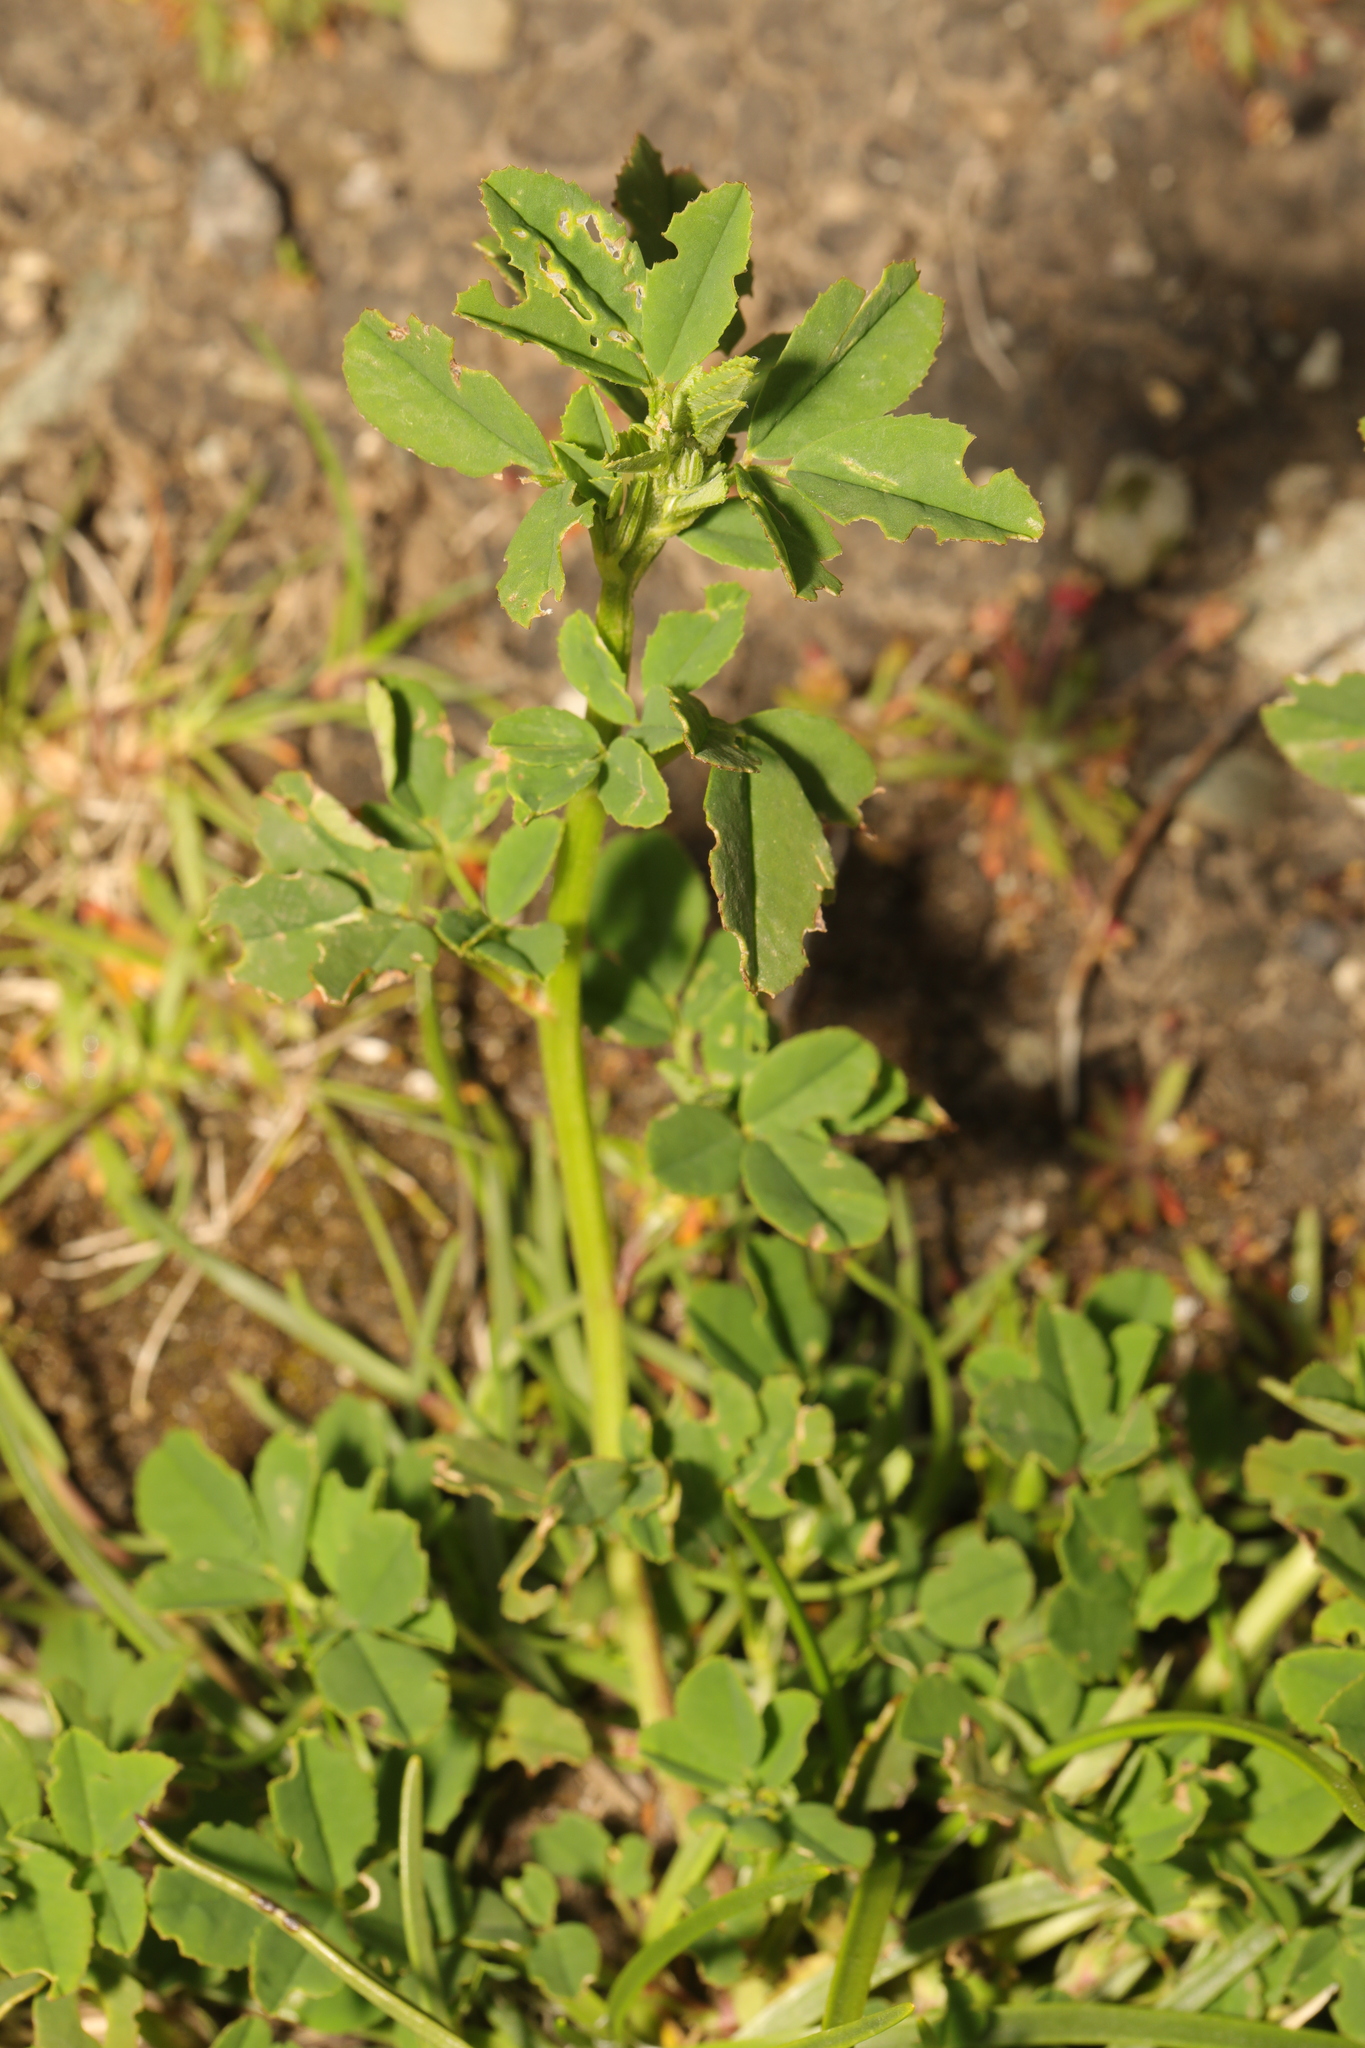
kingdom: Plantae
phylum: Tracheophyta
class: Magnoliopsida
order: Fabales
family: Fabaceae
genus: Melilotus
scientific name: Melilotus officinalis
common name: Sweetclover
